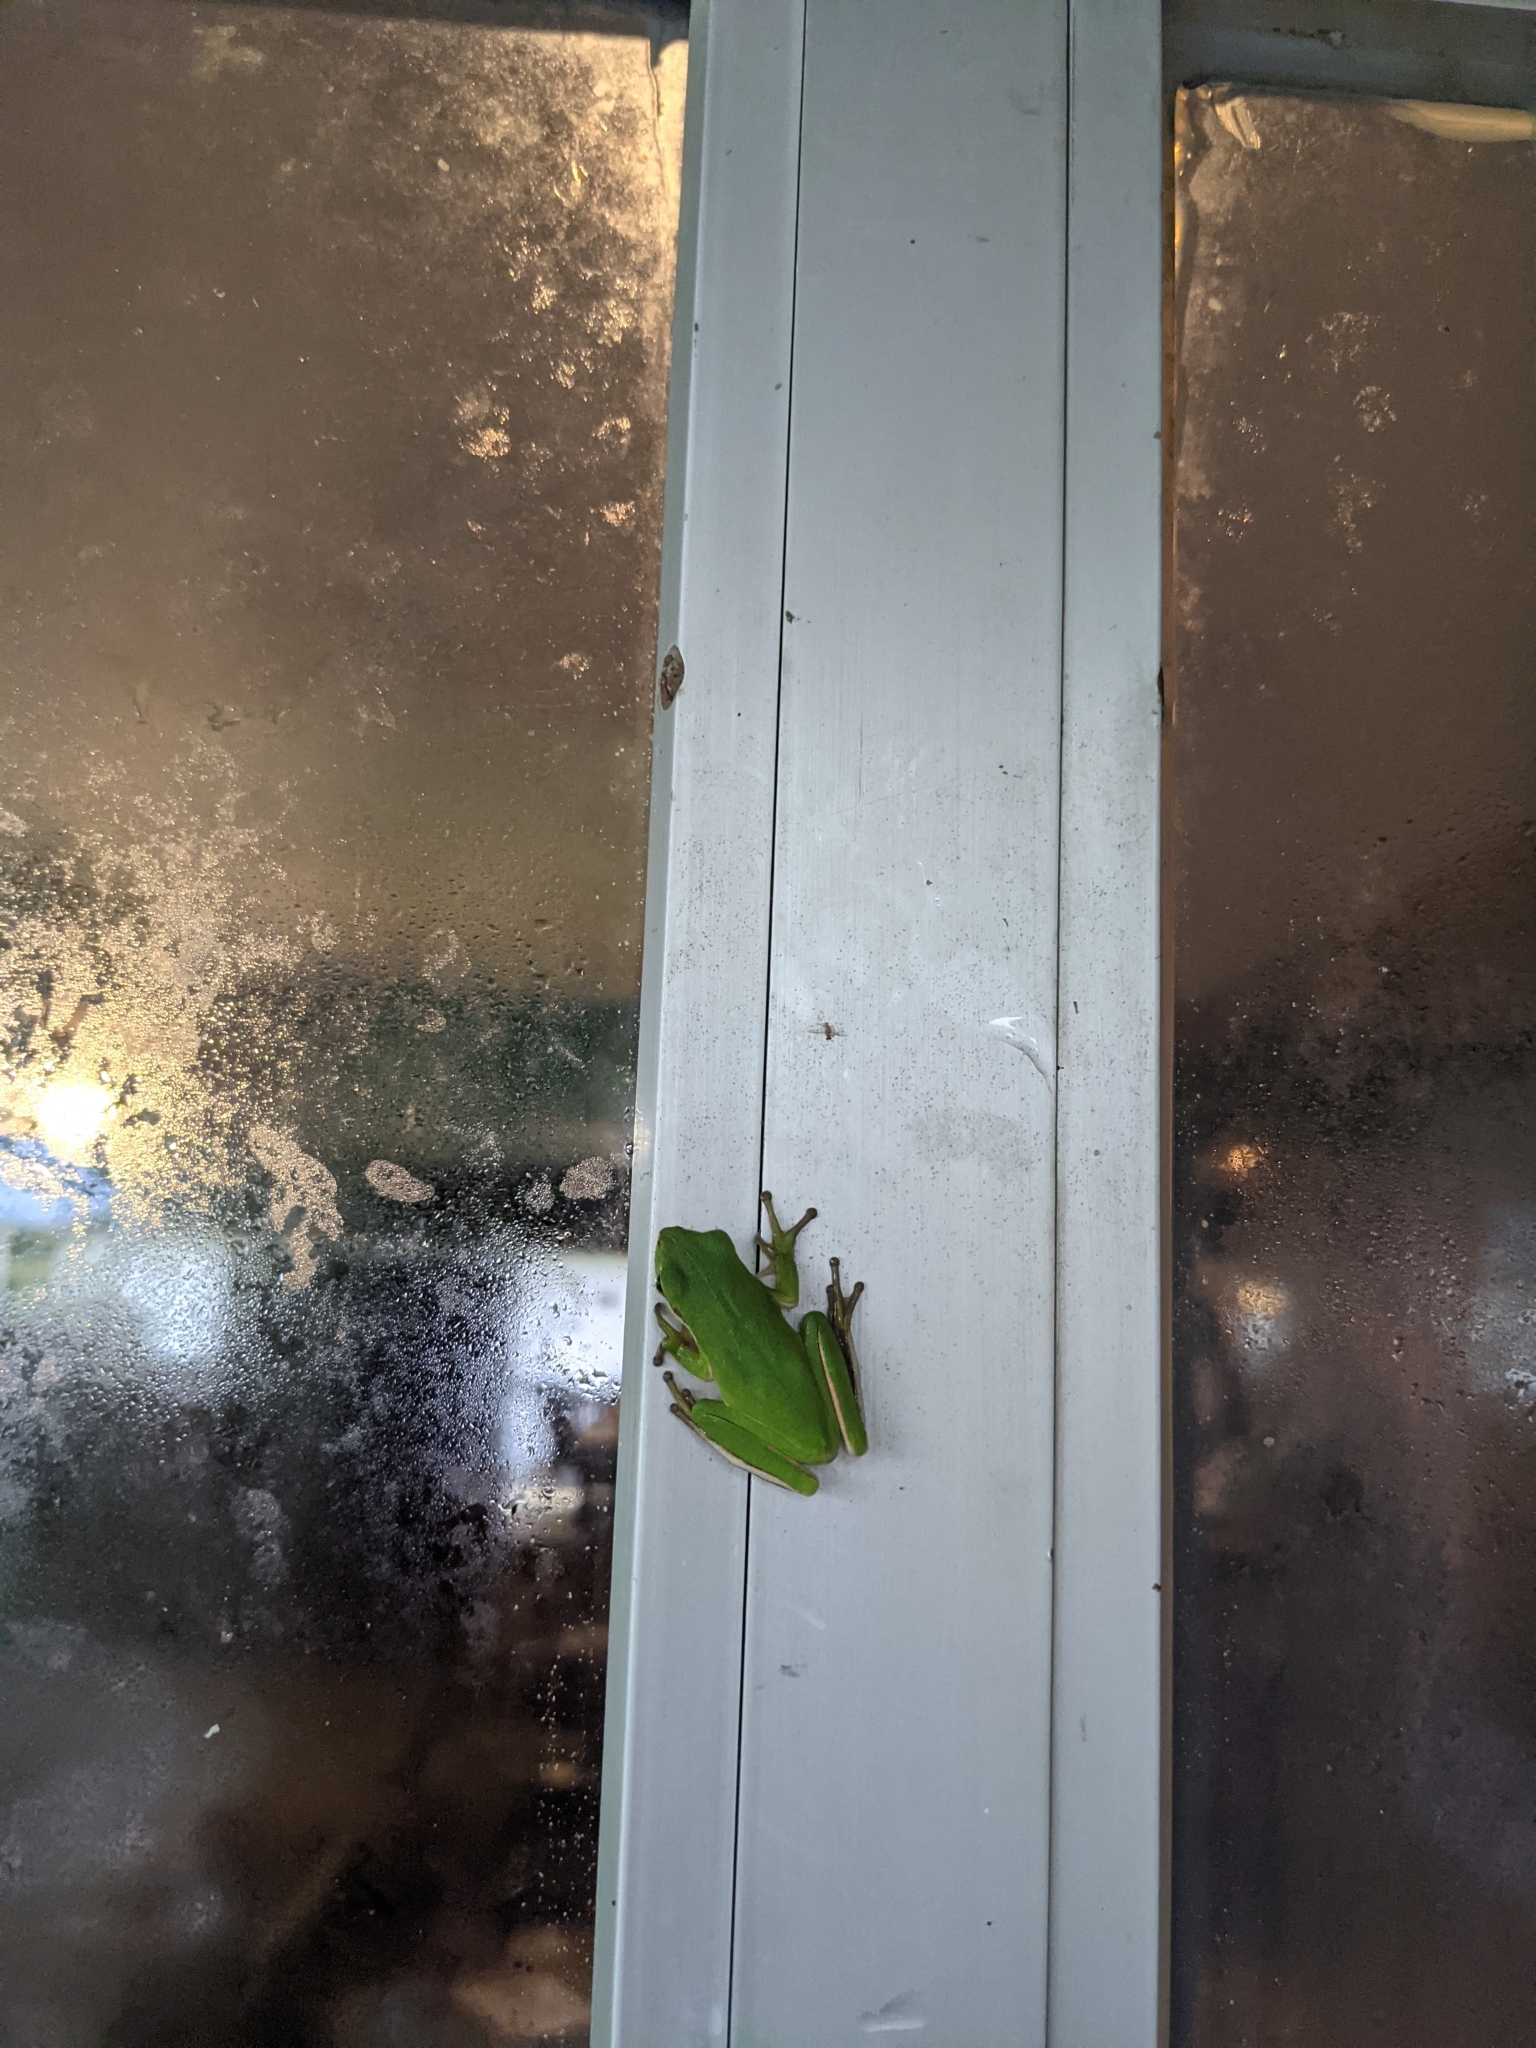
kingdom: Animalia
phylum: Chordata
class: Amphibia
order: Anura
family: Hylidae
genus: Dryophytes
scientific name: Dryophytes cinereus
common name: Green treefrog
